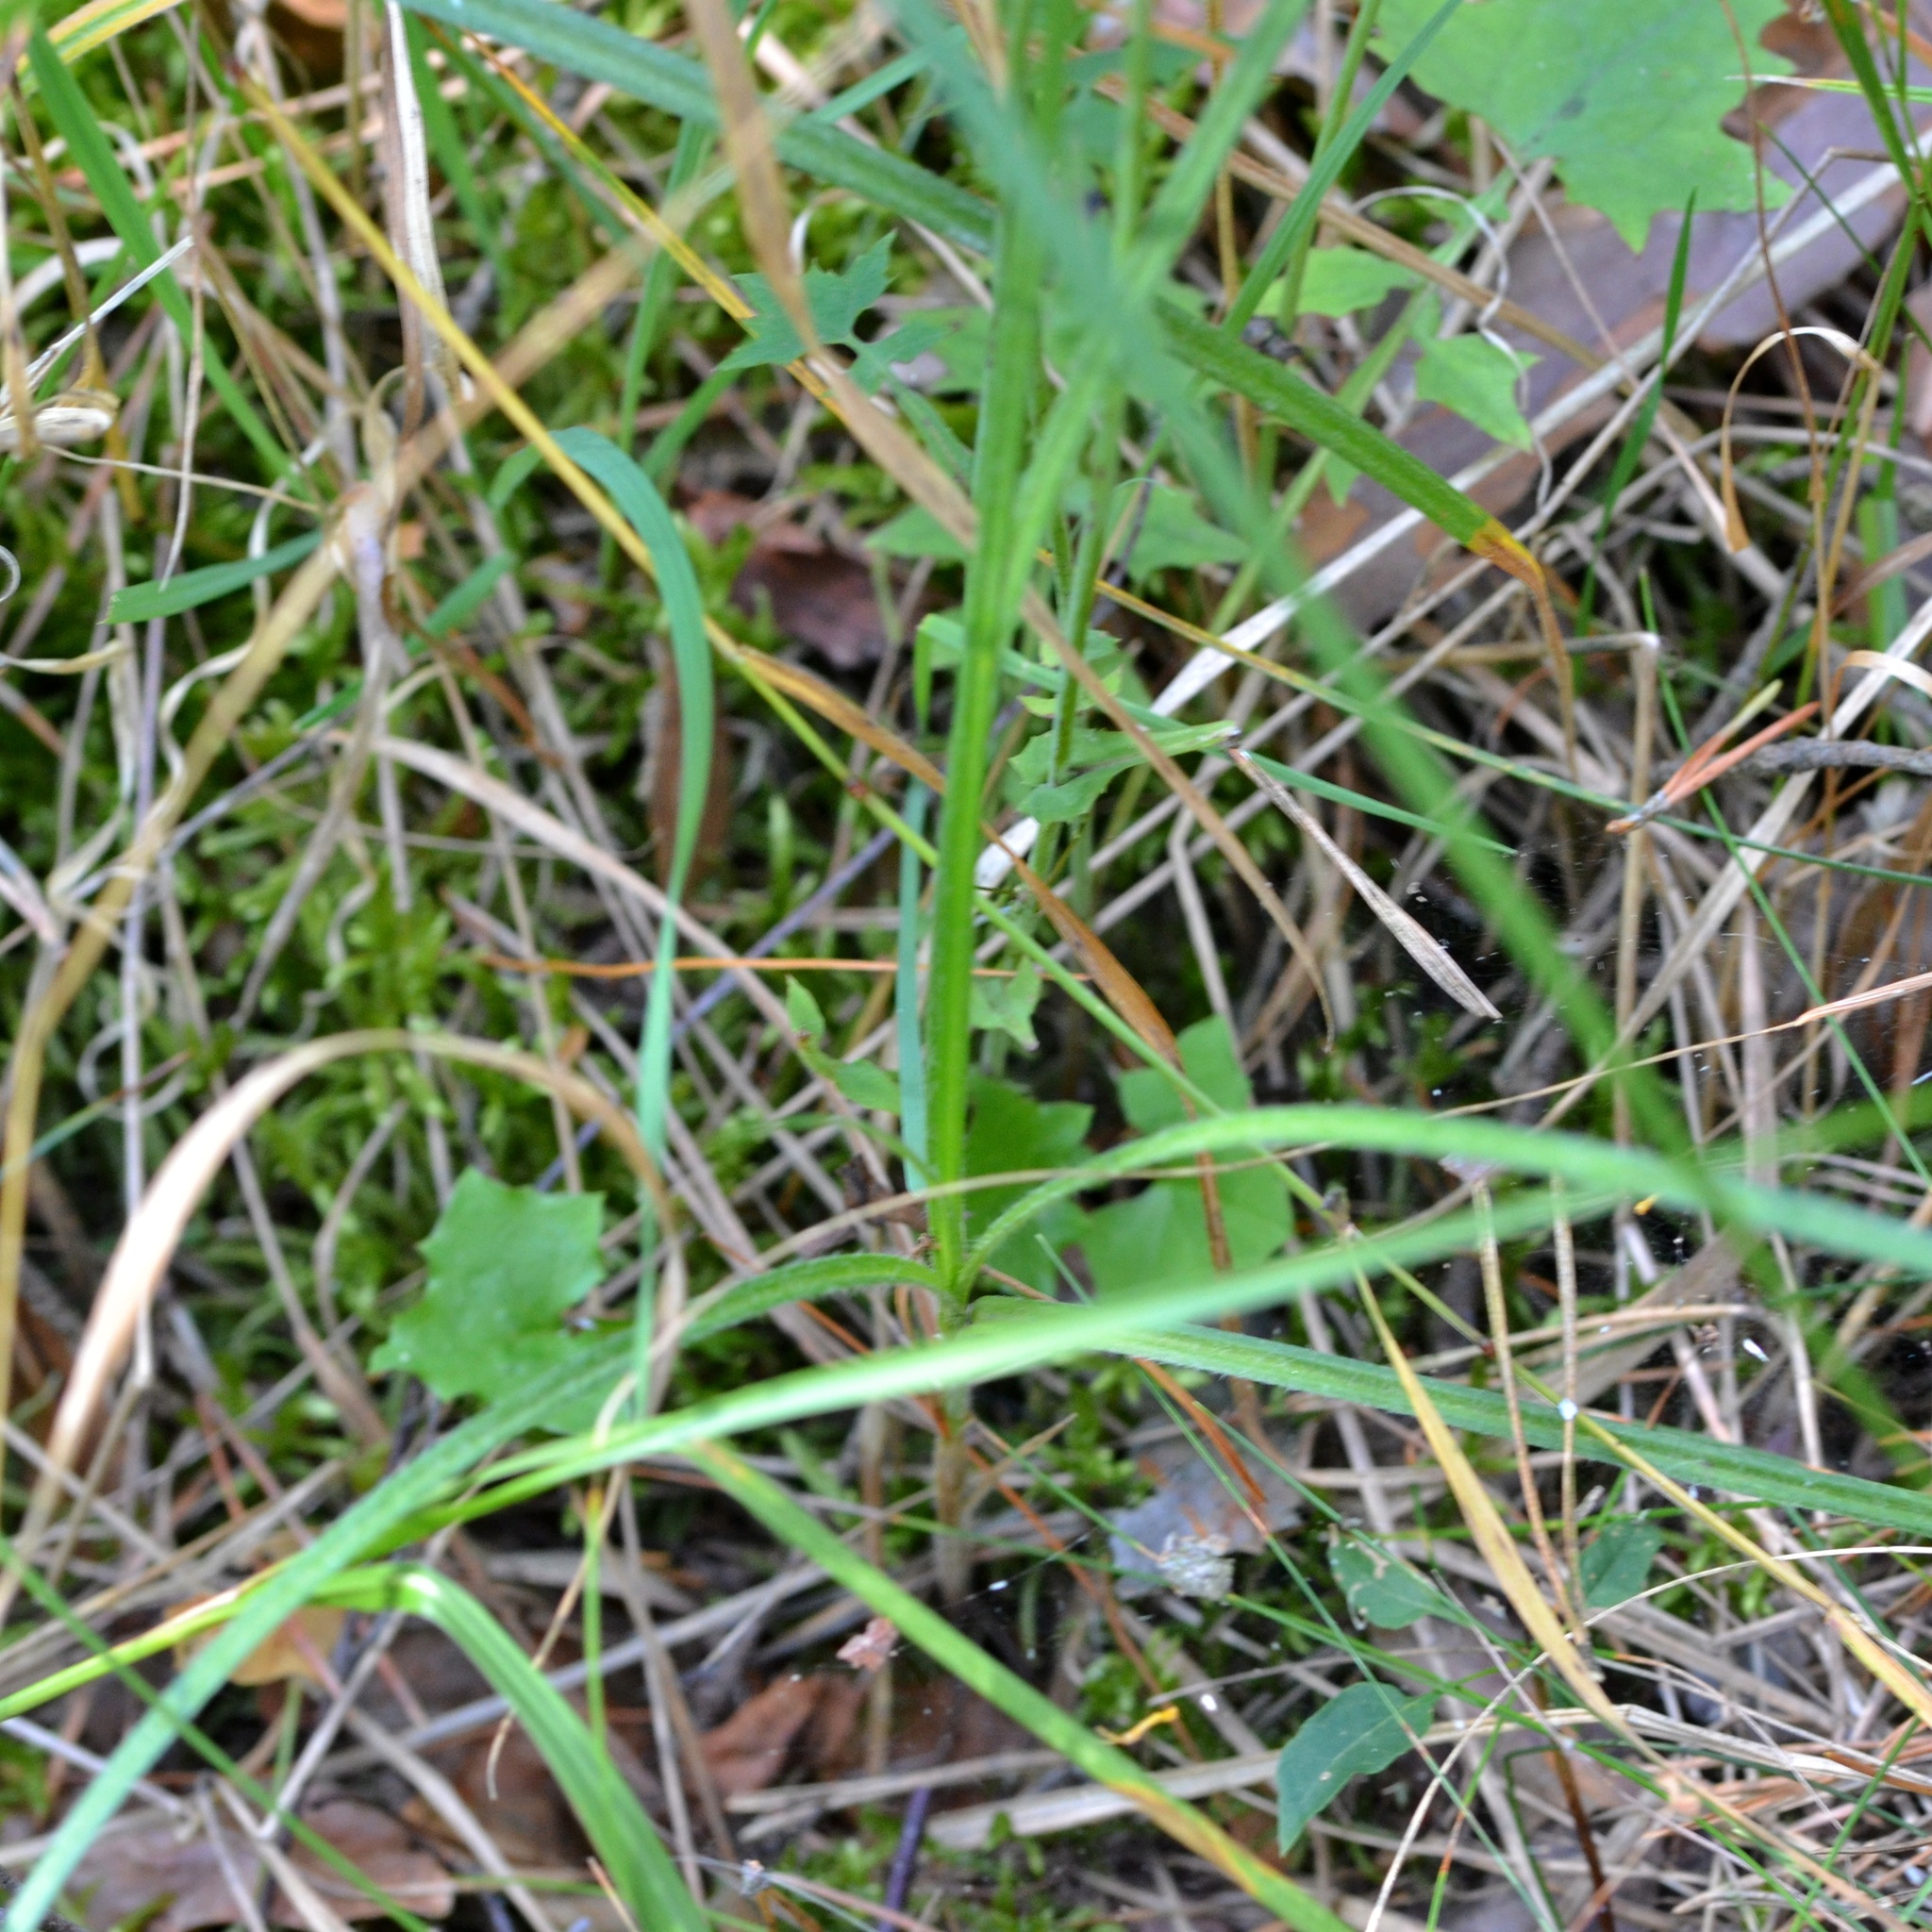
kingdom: Plantae
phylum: Tracheophyta
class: Magnoliopsida
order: Asterales
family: Asteraceae
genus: Mycelis
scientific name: Mycelis muralis
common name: Wall lettuce
